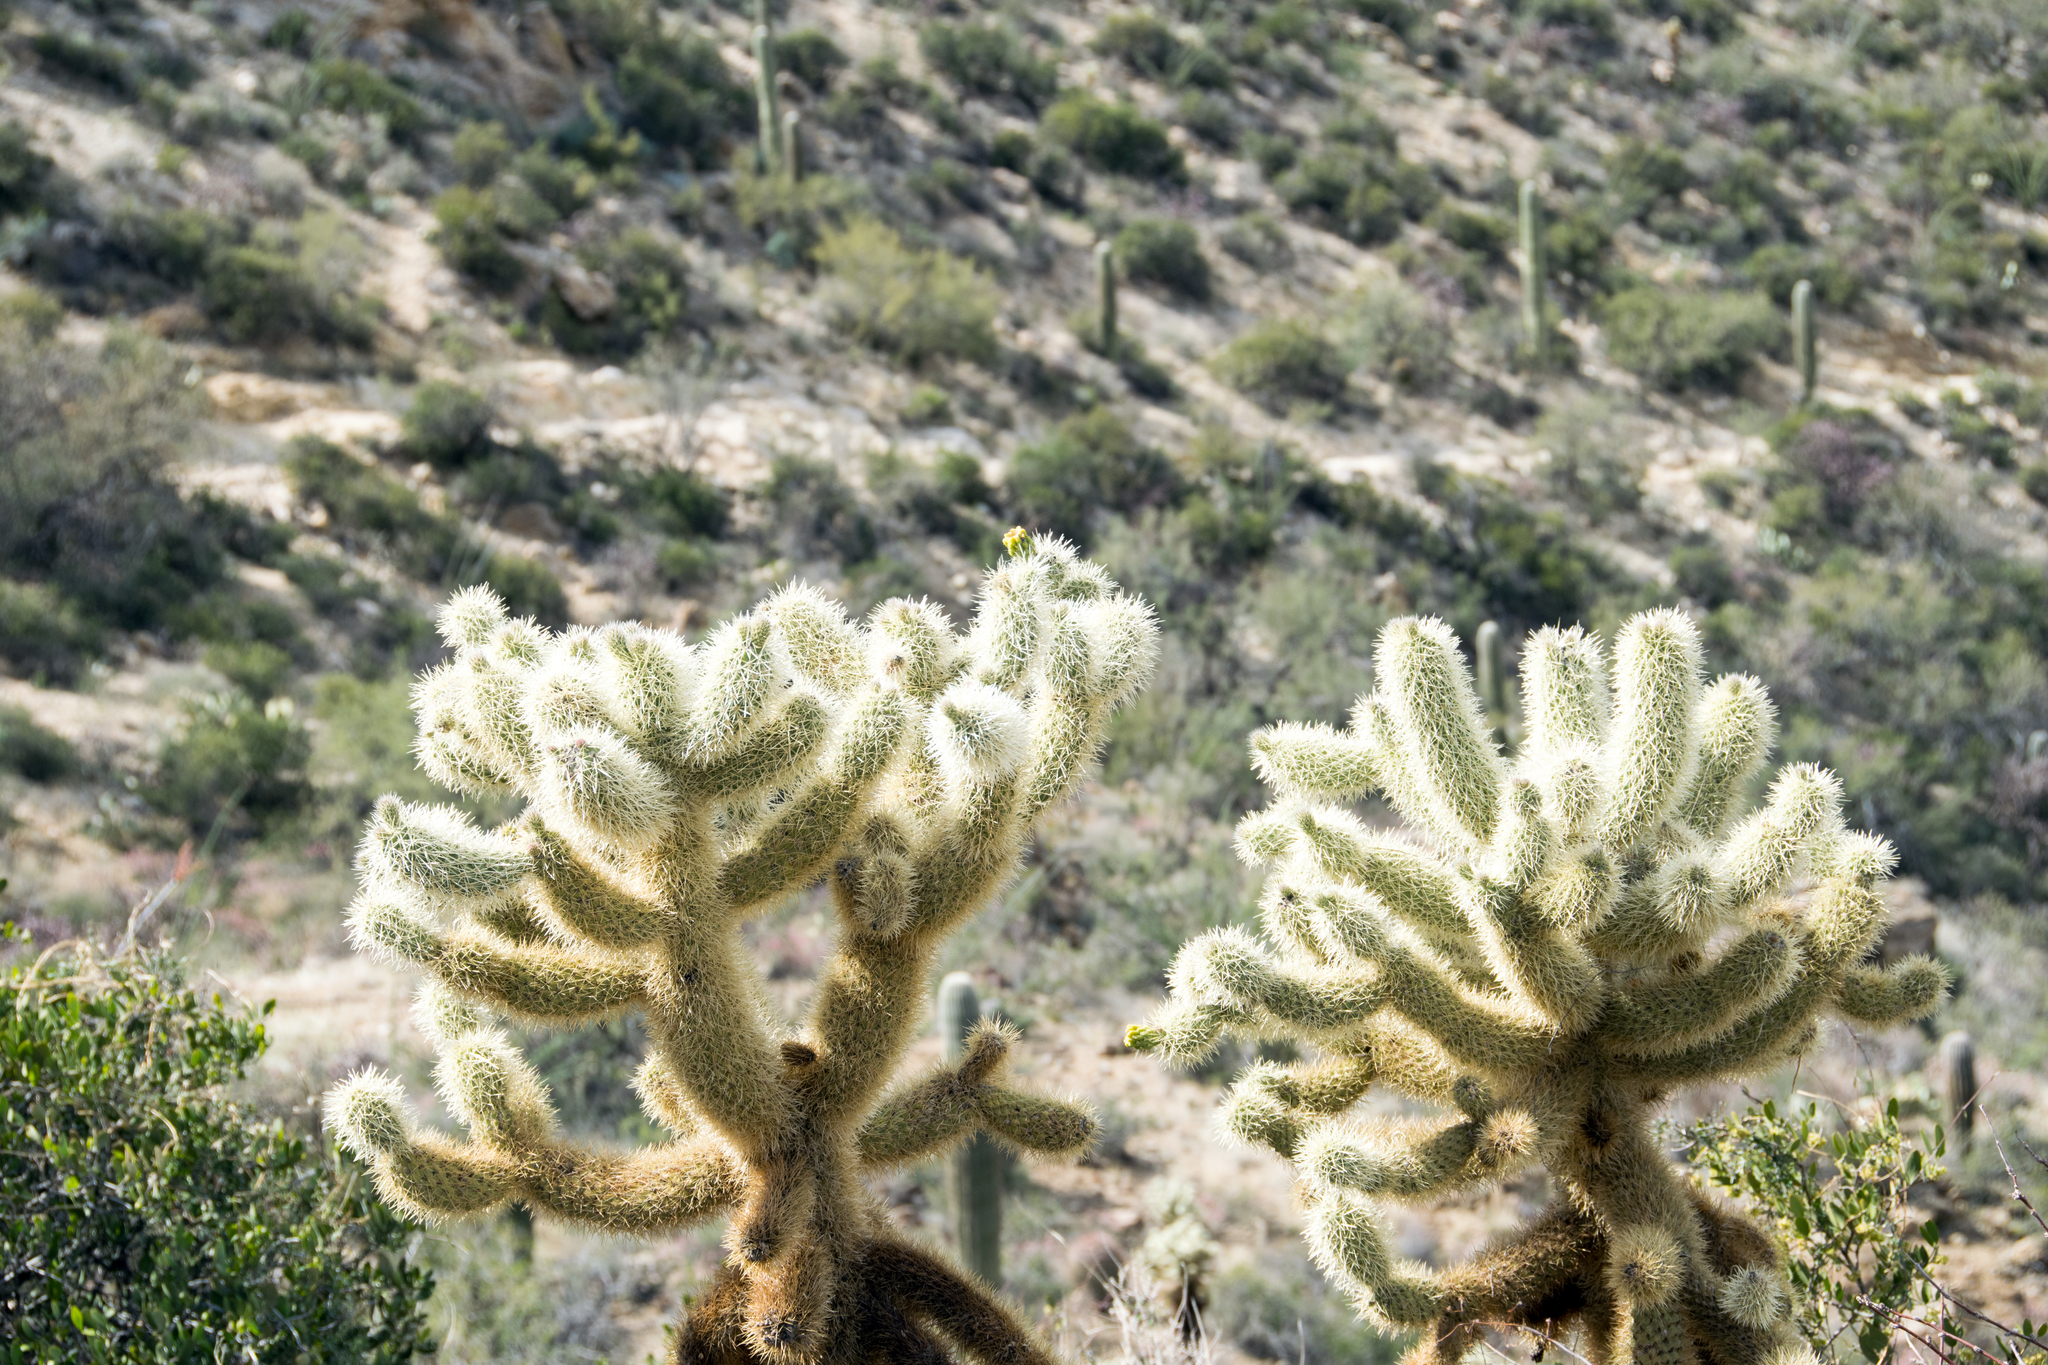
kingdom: Plantae
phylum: Tracheophyta
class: Magnoliopsida
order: Caryophyllales
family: Cactaceae
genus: Cylindropuntia
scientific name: Cylindropuntia fosbergii
